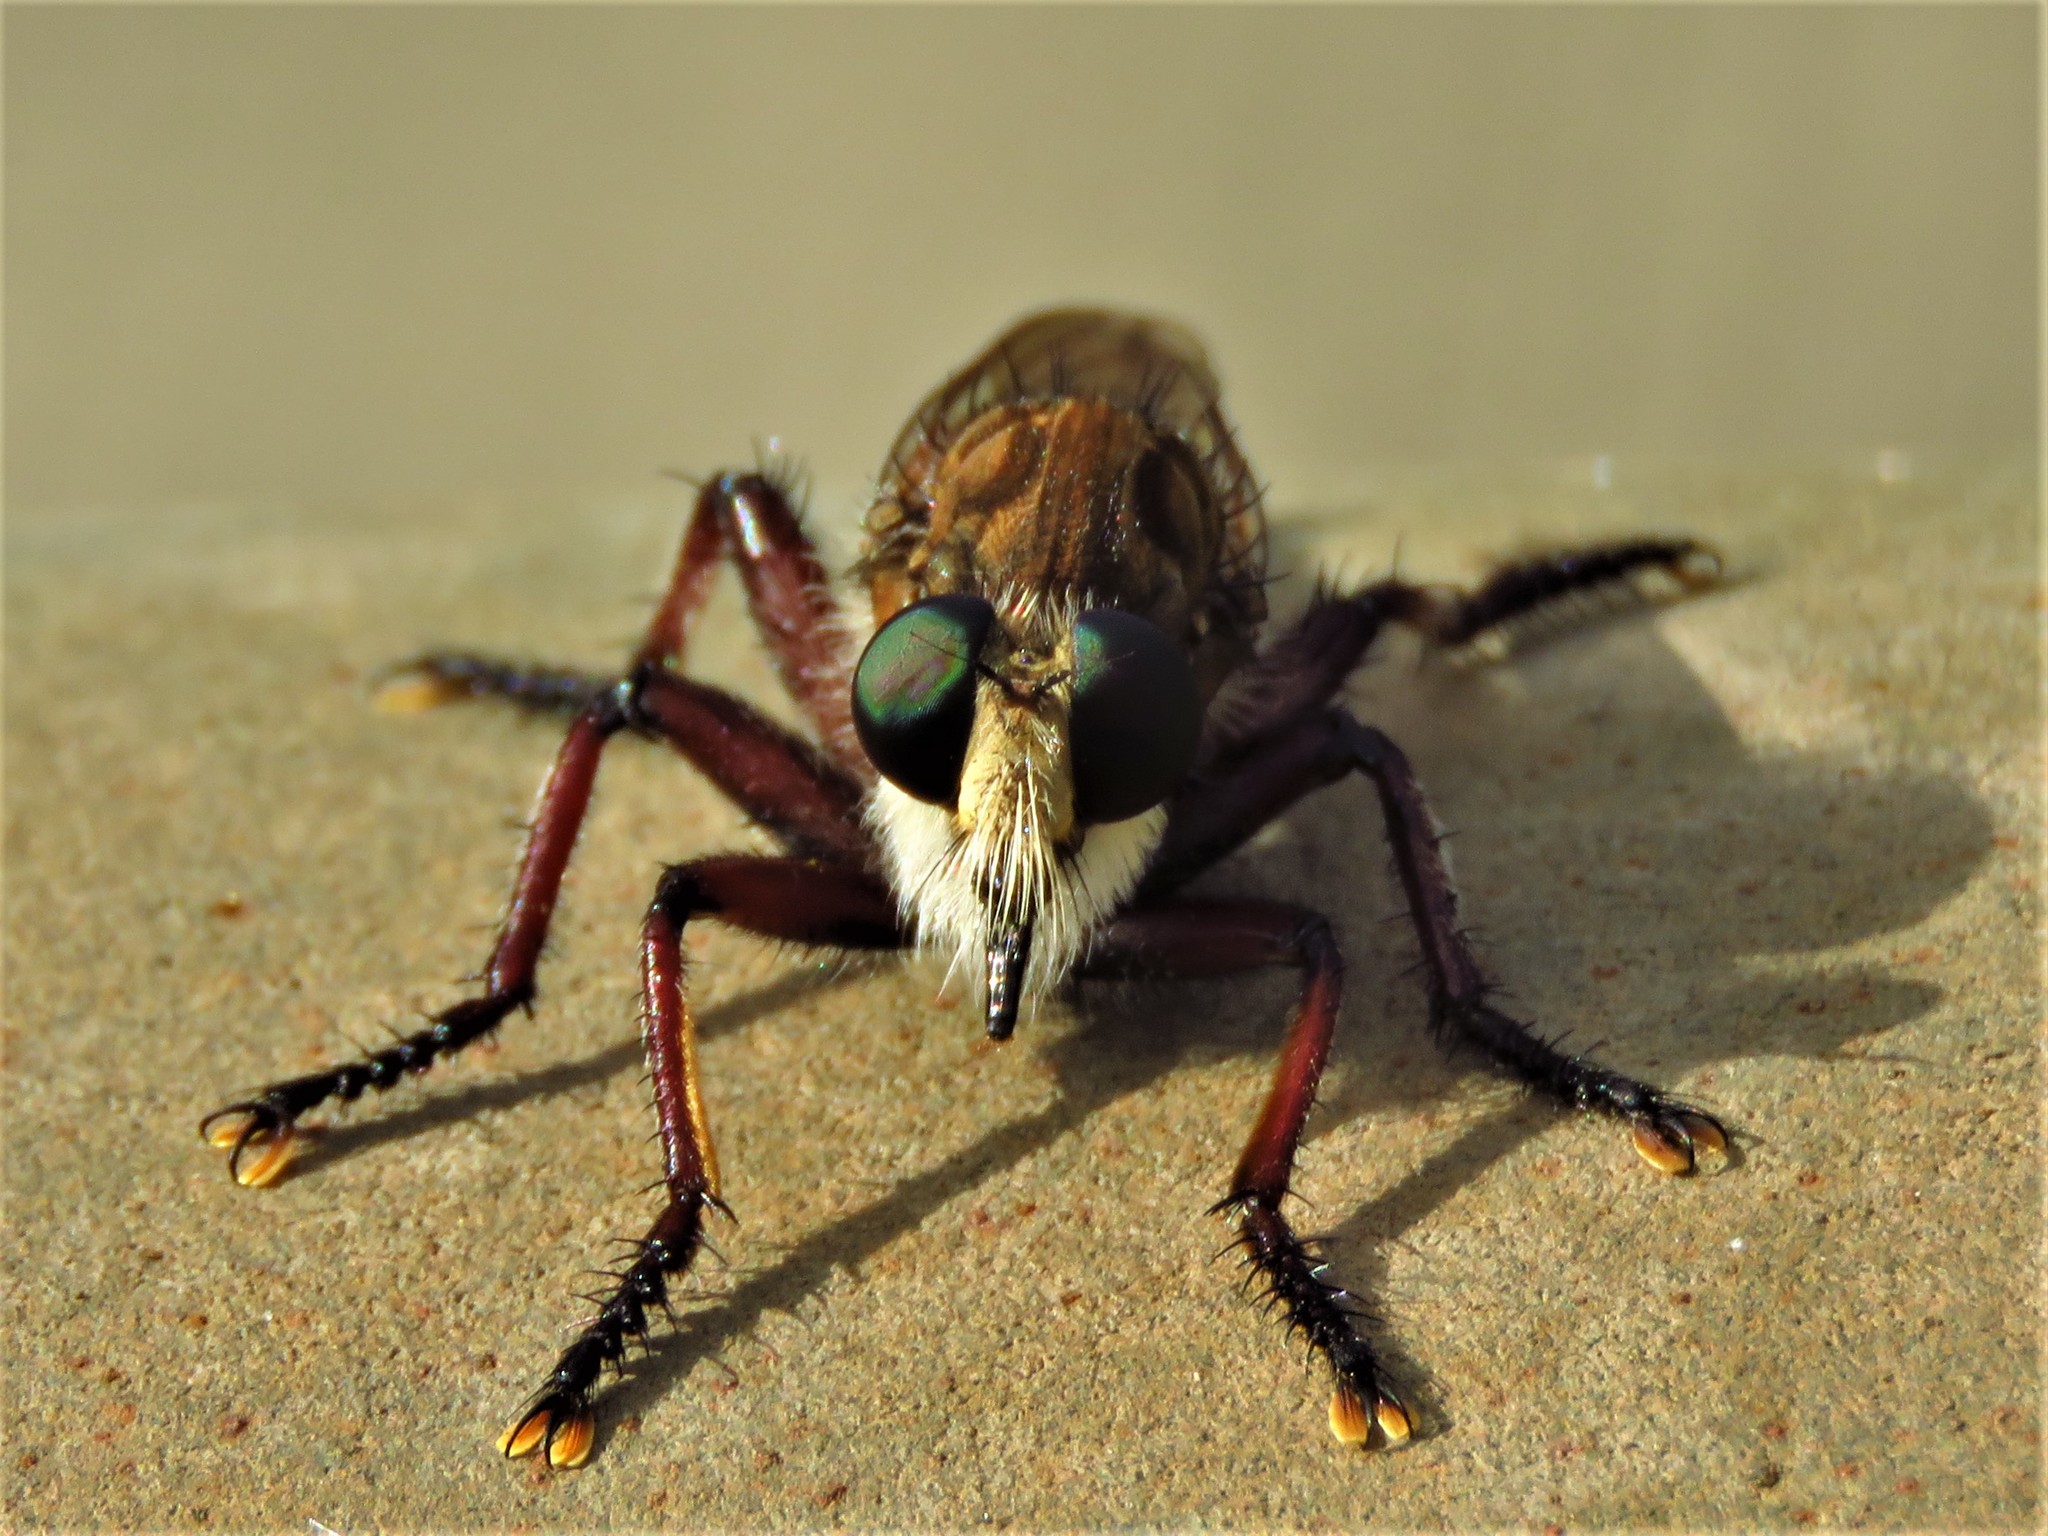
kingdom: Animalia
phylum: Arthropoda
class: Insecta
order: Diptera
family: Asilidae
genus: Promachus
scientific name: Promachus hinei
